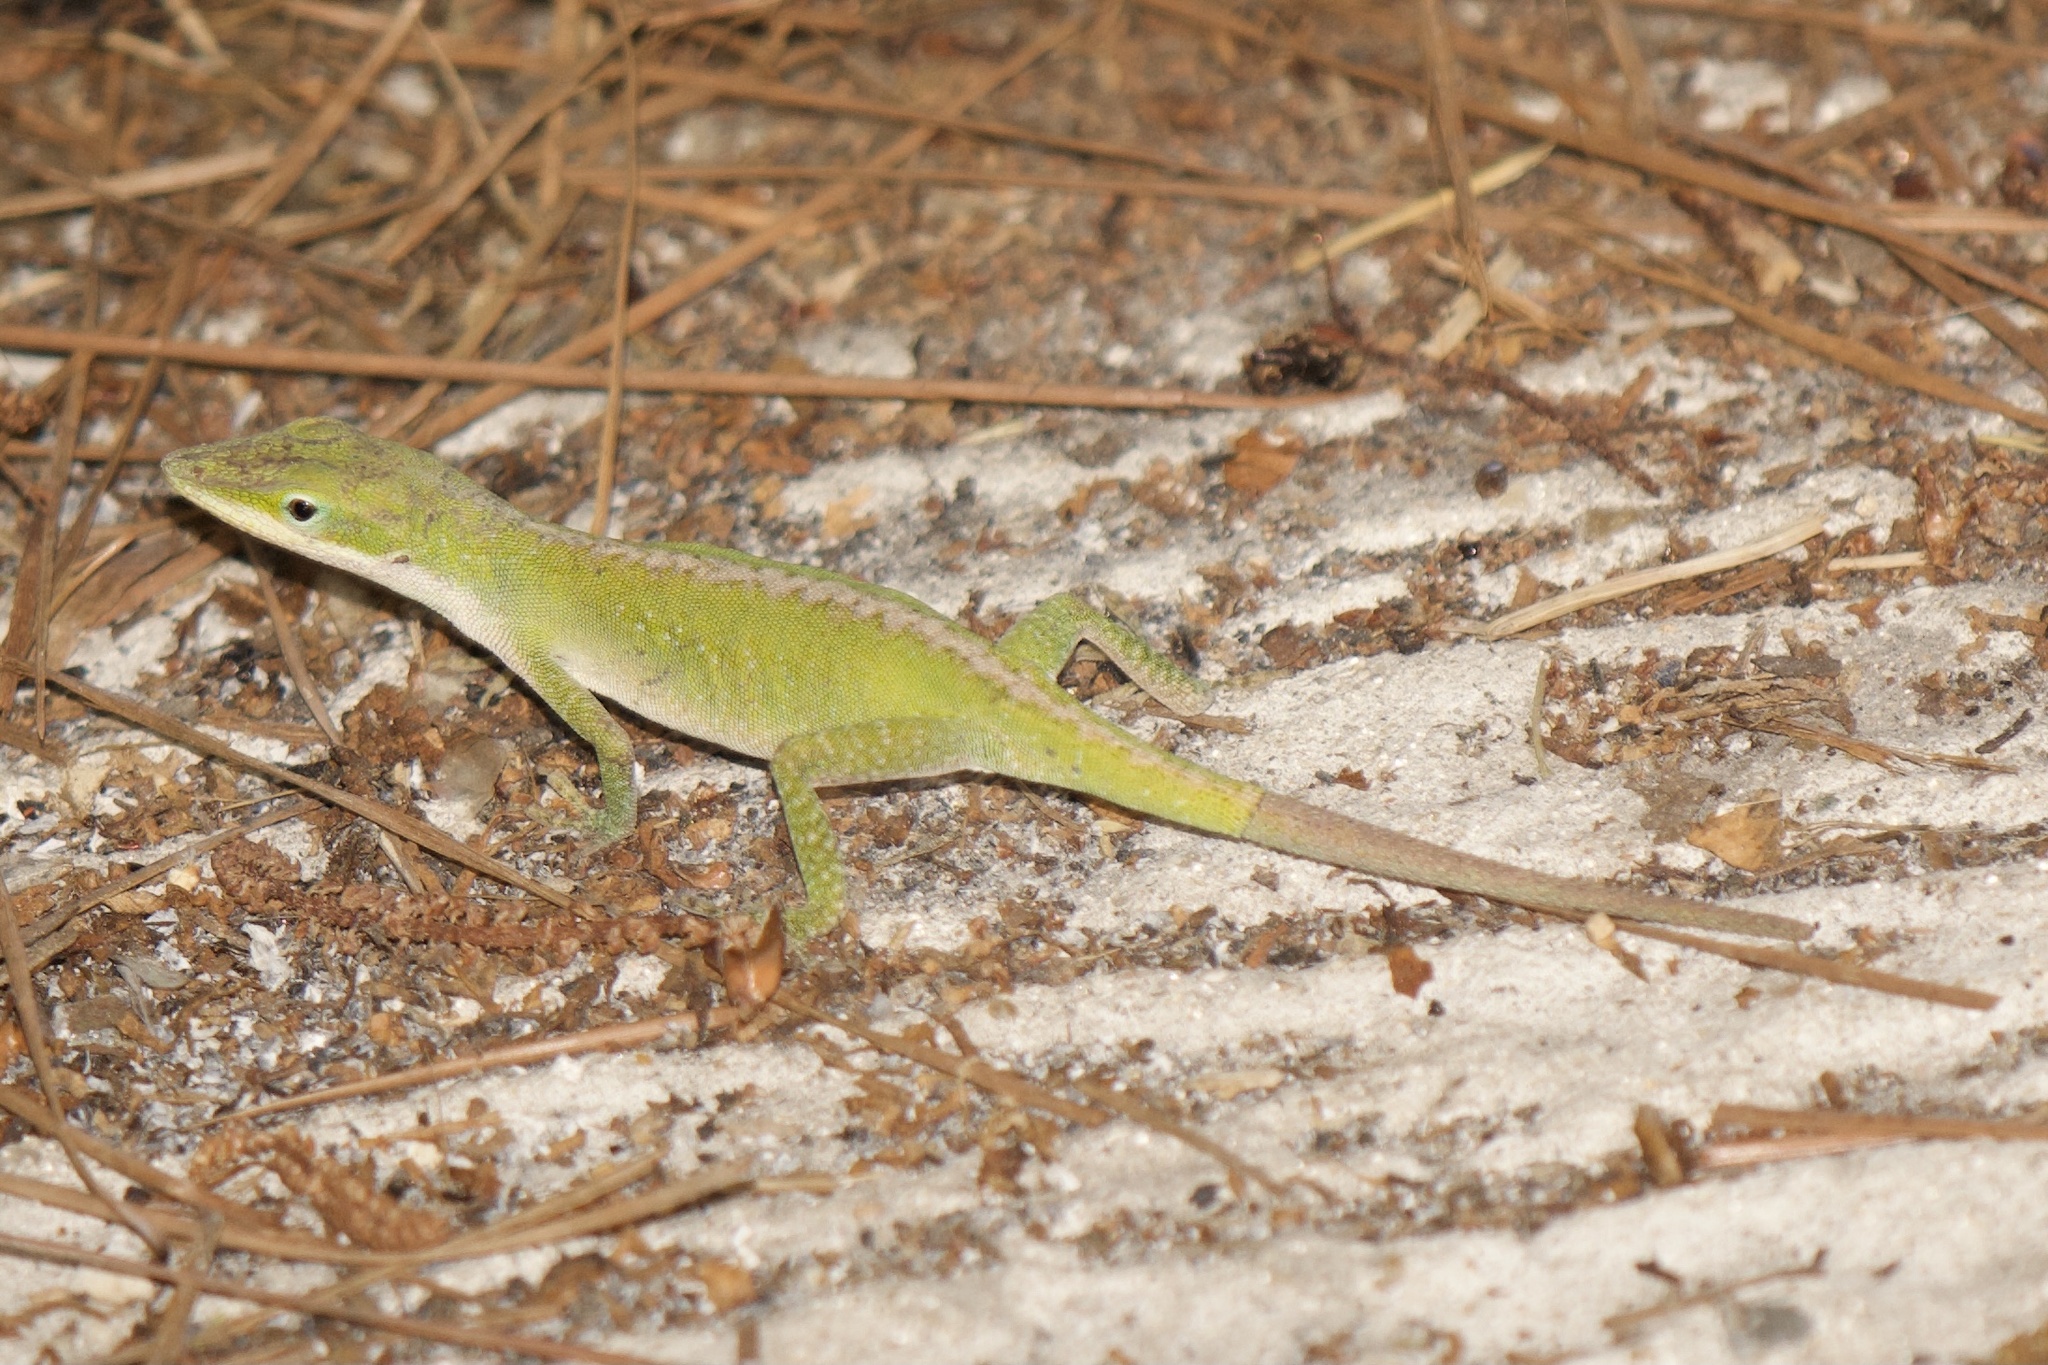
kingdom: Animalia
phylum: Chordata
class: Squamata
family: Dactyloidae
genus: Anolis
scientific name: Anolis carolinensis
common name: Green anole
